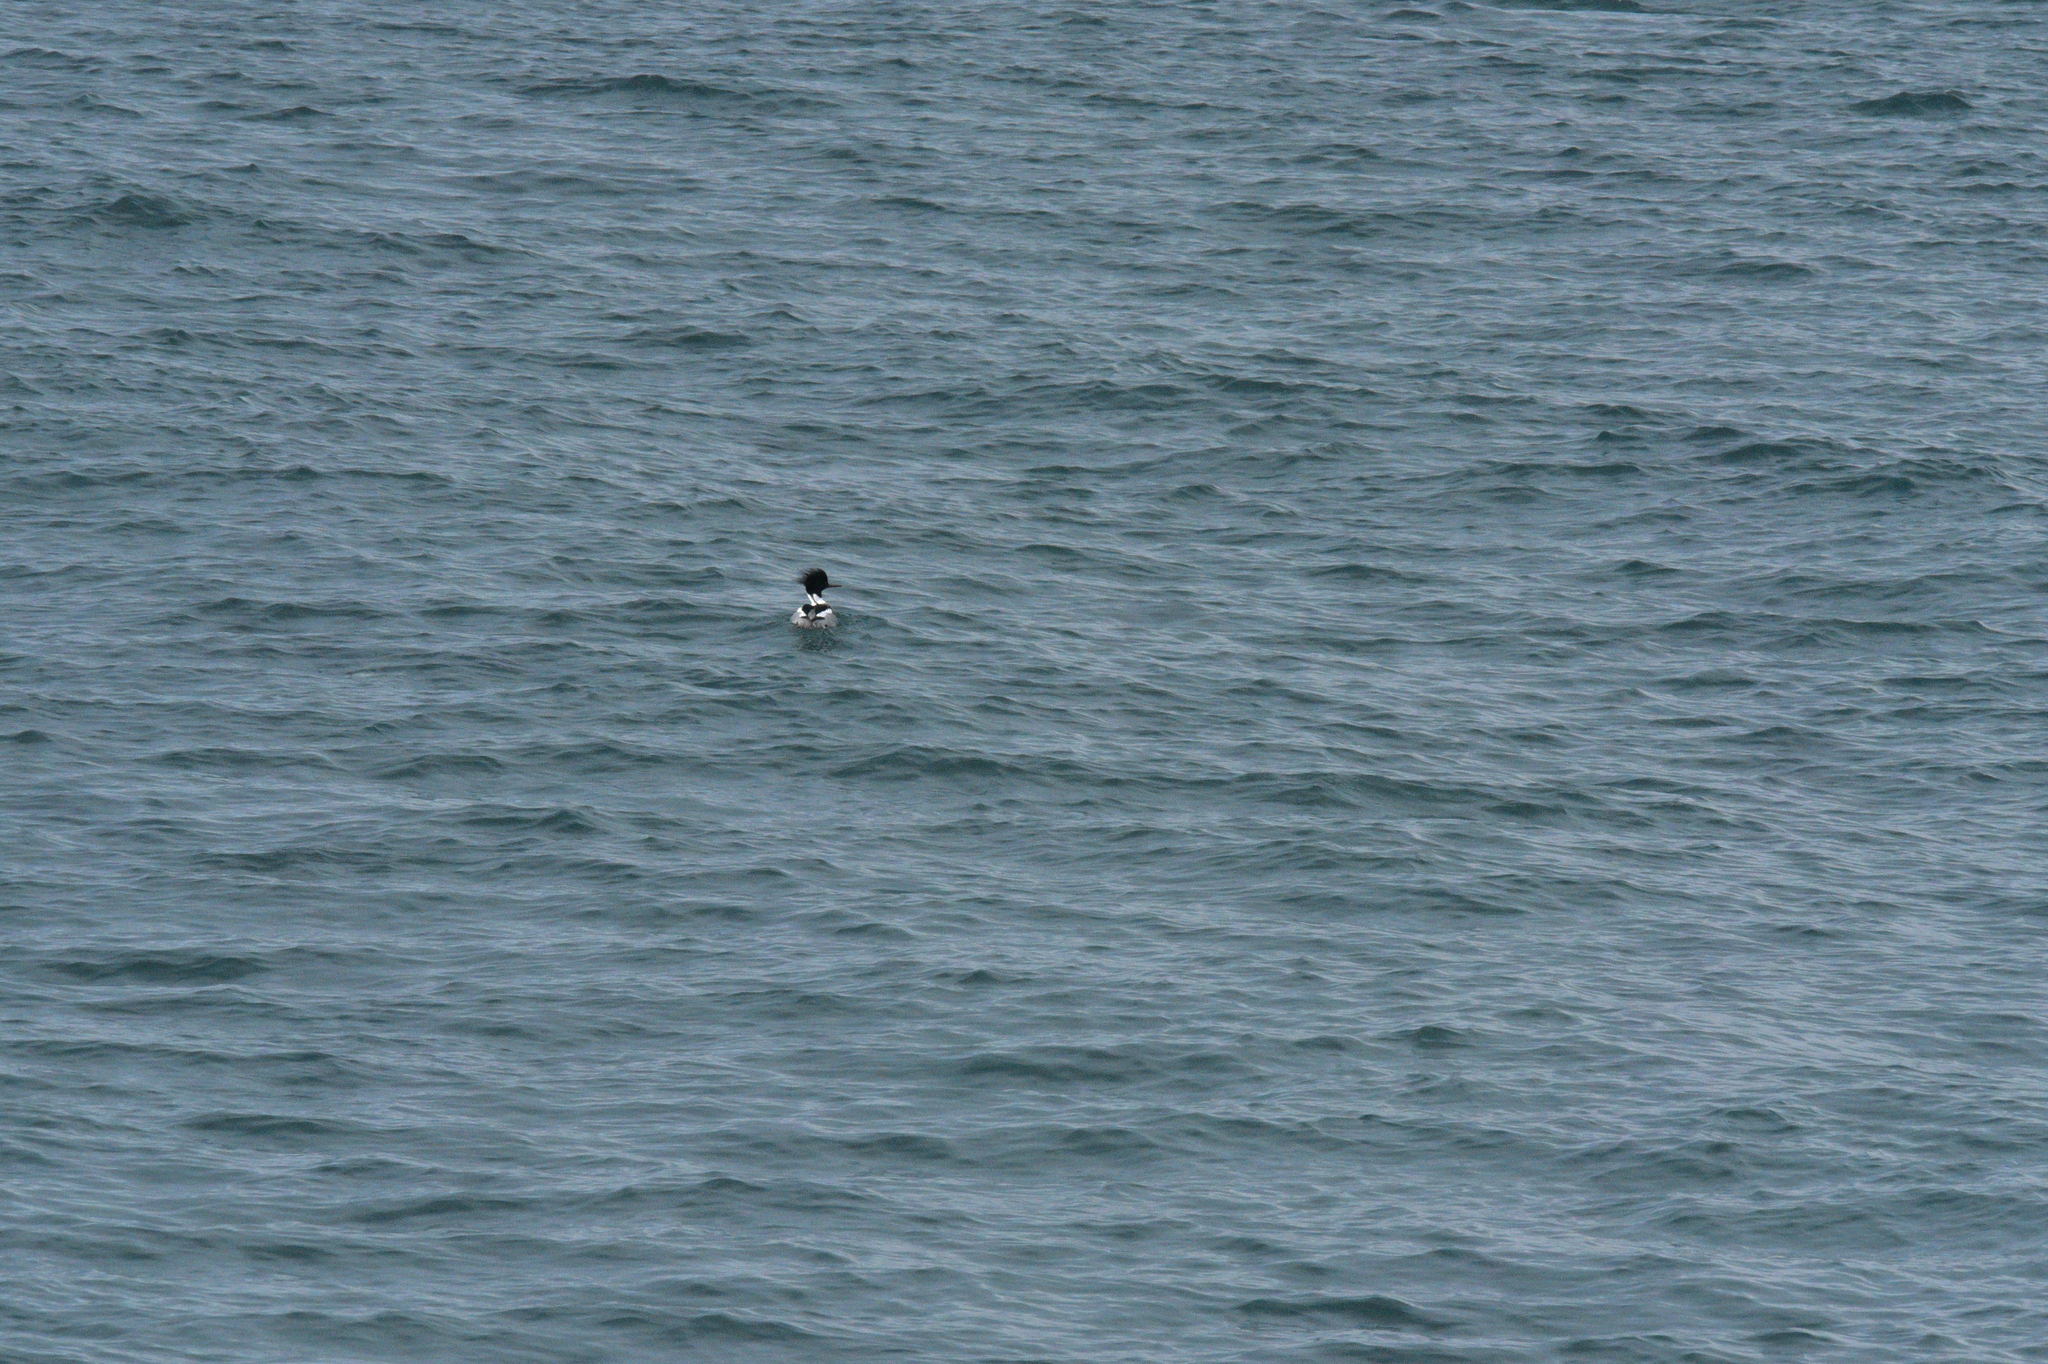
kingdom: Animalia
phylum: Chordata
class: Aves
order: Anseriformes
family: Anatidae
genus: Mergus
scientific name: Mergus serrator
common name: Red-breasted merganser
